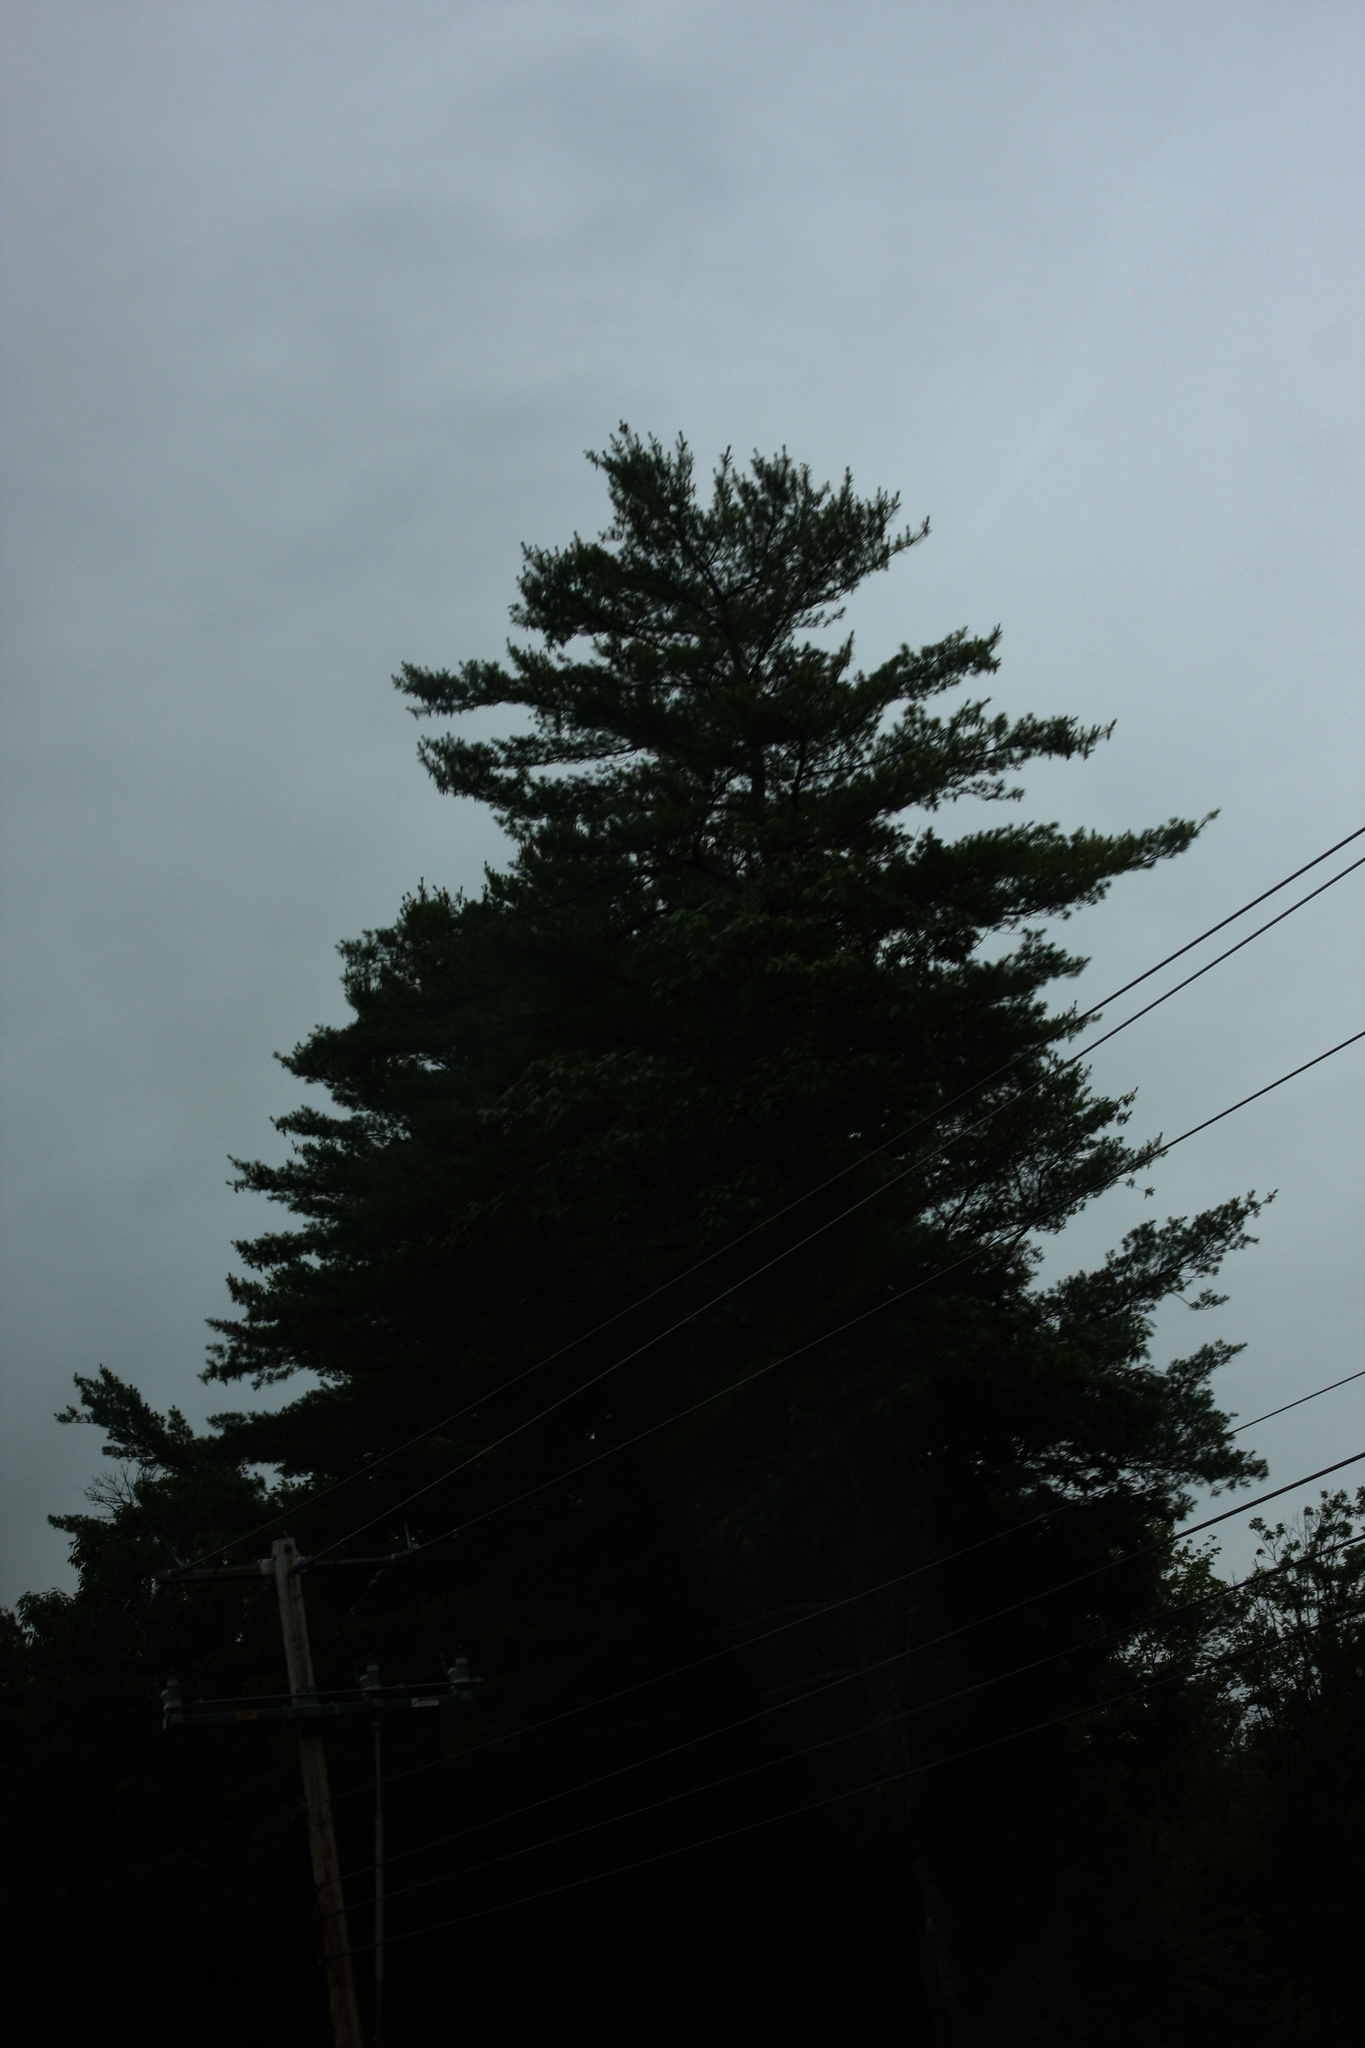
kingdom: Plantae
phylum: Tracheophyta
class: Pinopsida
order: Pinales
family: Pinaceae
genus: Pinus
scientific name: Pinus strobus
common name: Weymouth pine
